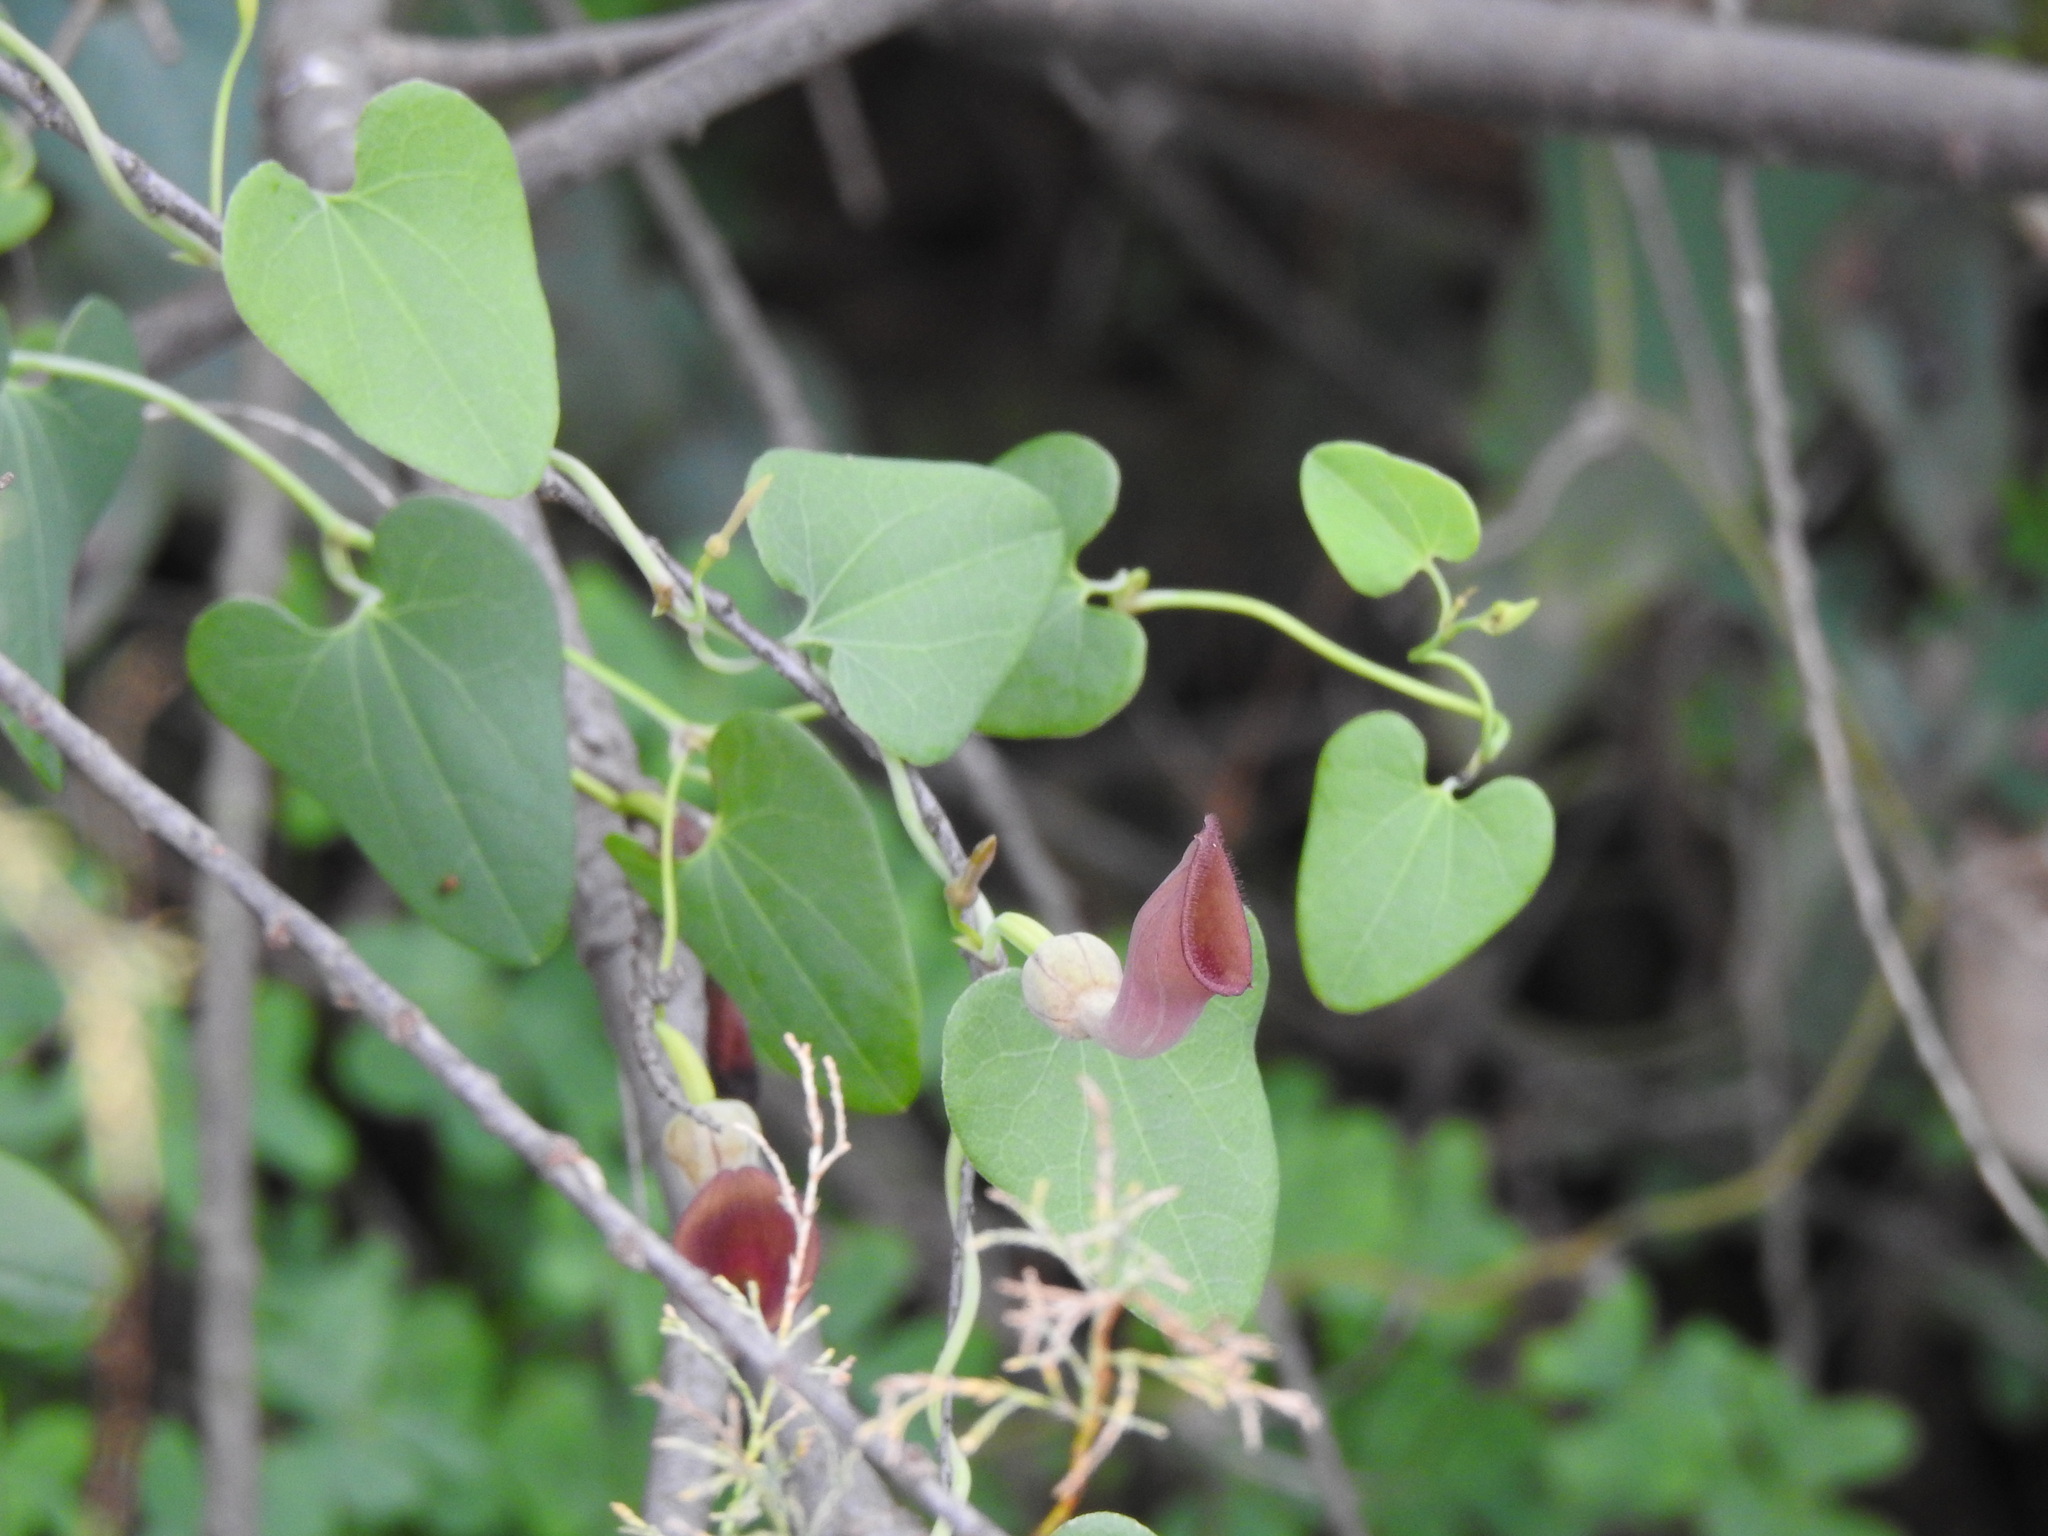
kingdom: Plantae
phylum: Tracheophyta
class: Magnoliopsida
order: Piperales
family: Aristolochiaceae
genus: Aristolochia
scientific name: Aristolochia baetica
